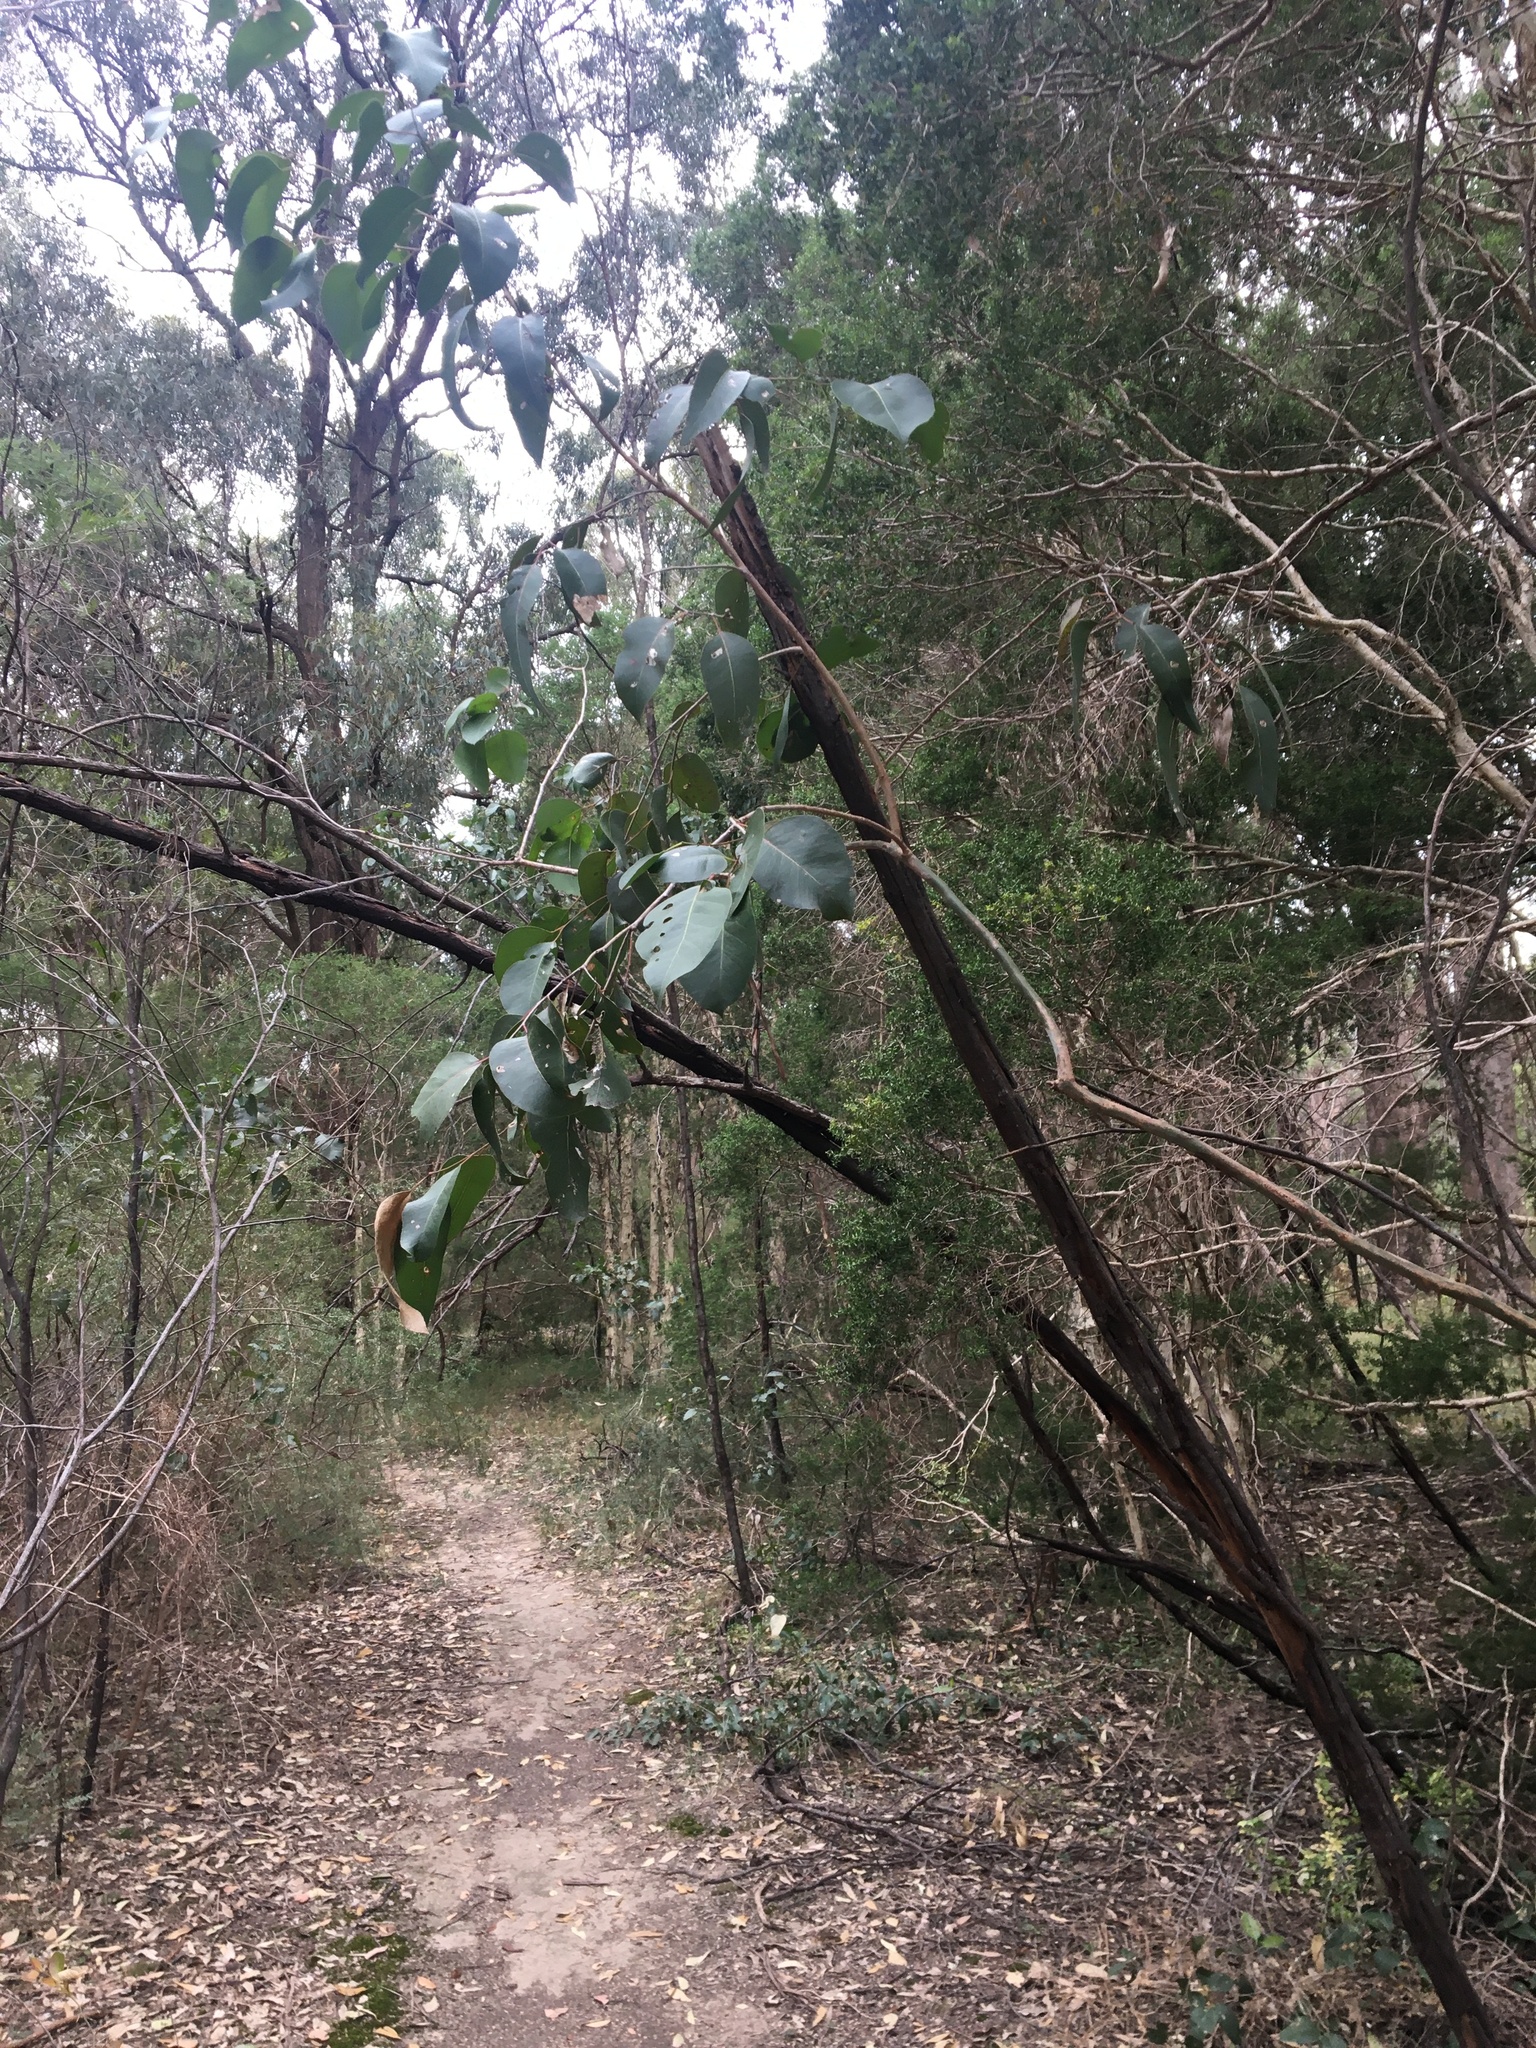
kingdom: Plantae
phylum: Tracheophyta
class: Magnoliopsida
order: Myrtales
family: Myrtaceae
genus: Eucalyptus
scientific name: Eucalyptus amplifolia
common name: Cabbage gum
